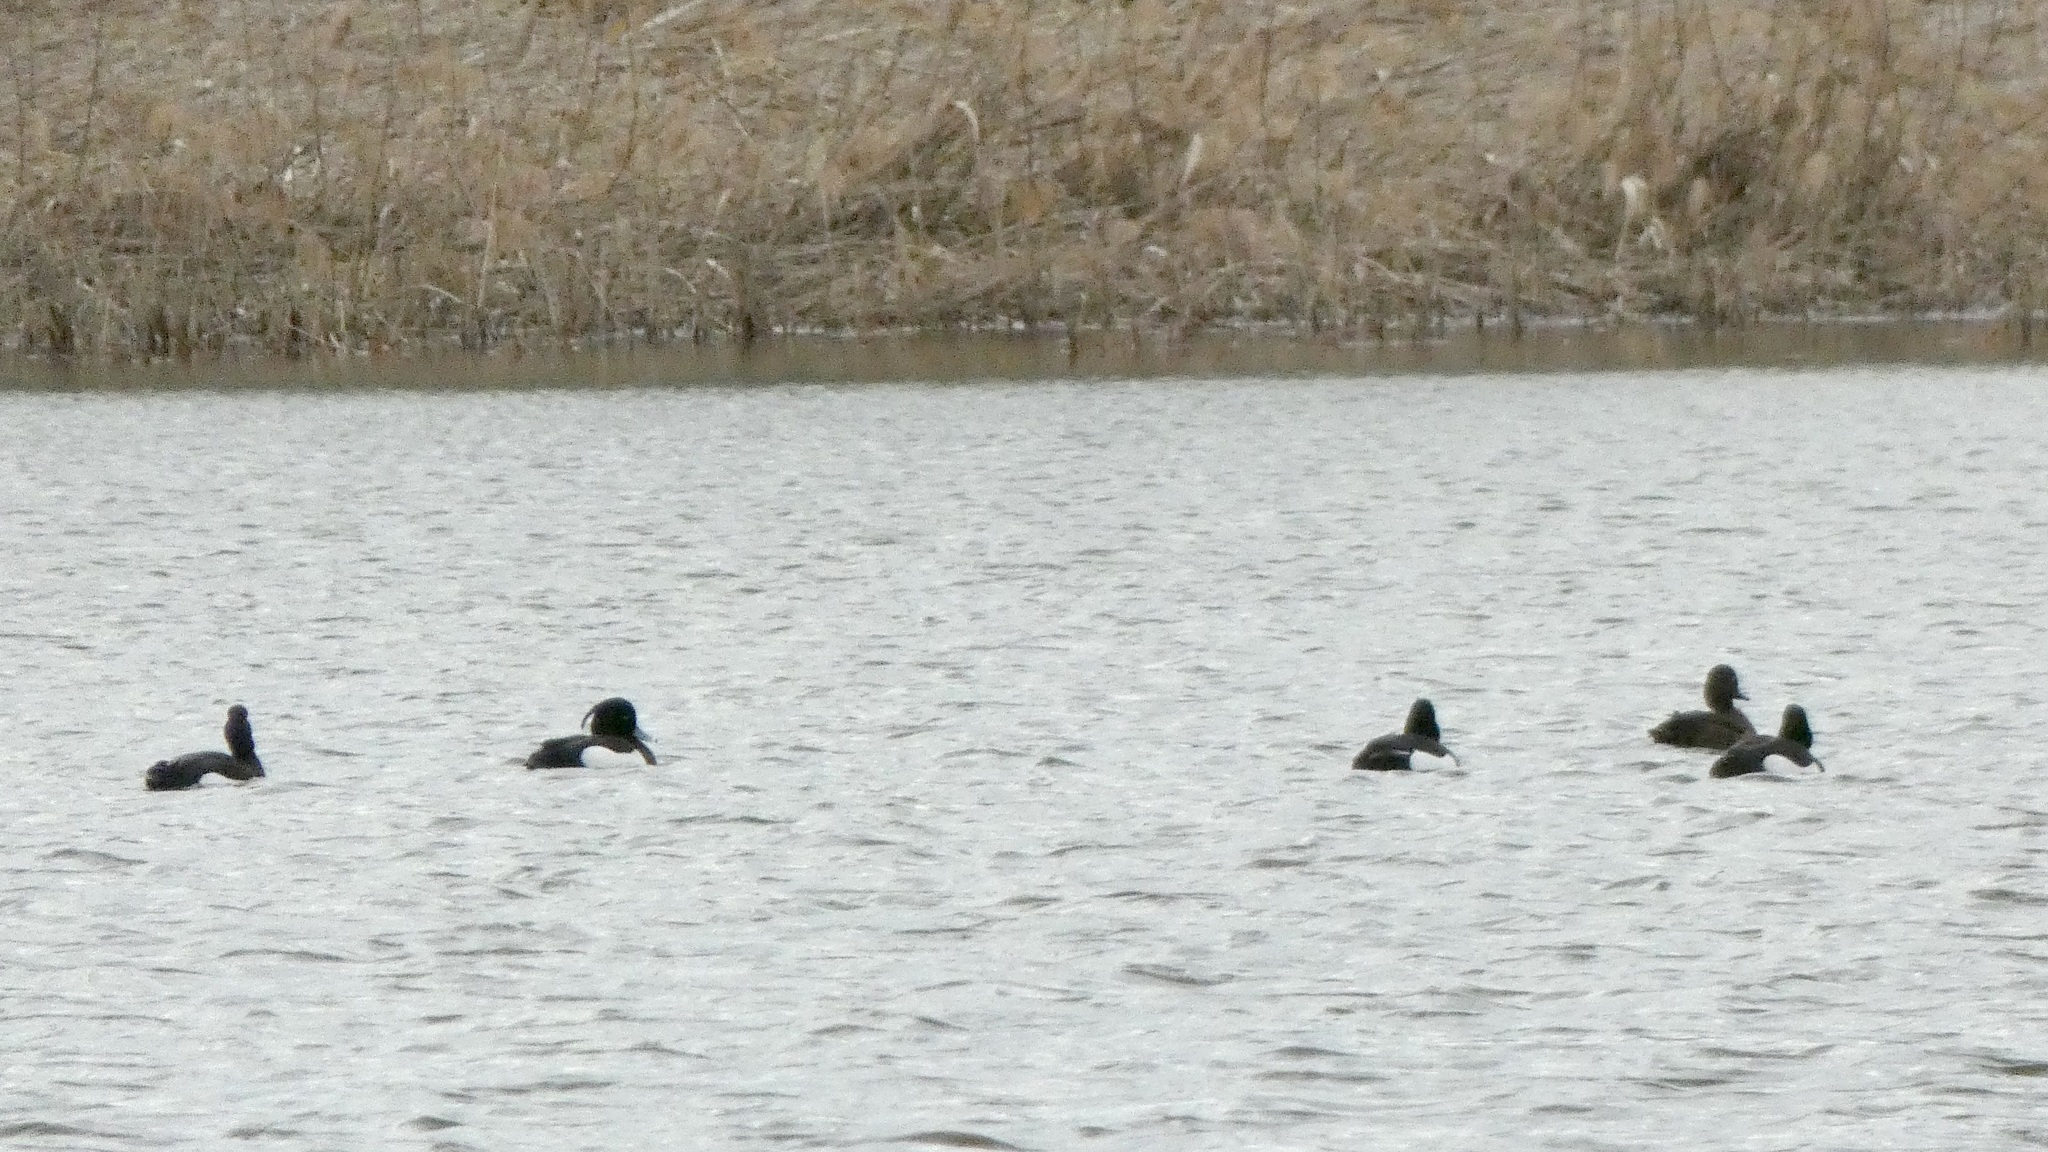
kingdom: Animalia
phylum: Chordata
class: Aves
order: Anseriformes
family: Anatidae
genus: Aythya
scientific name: Aythya fuligula
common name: Tufted duck
